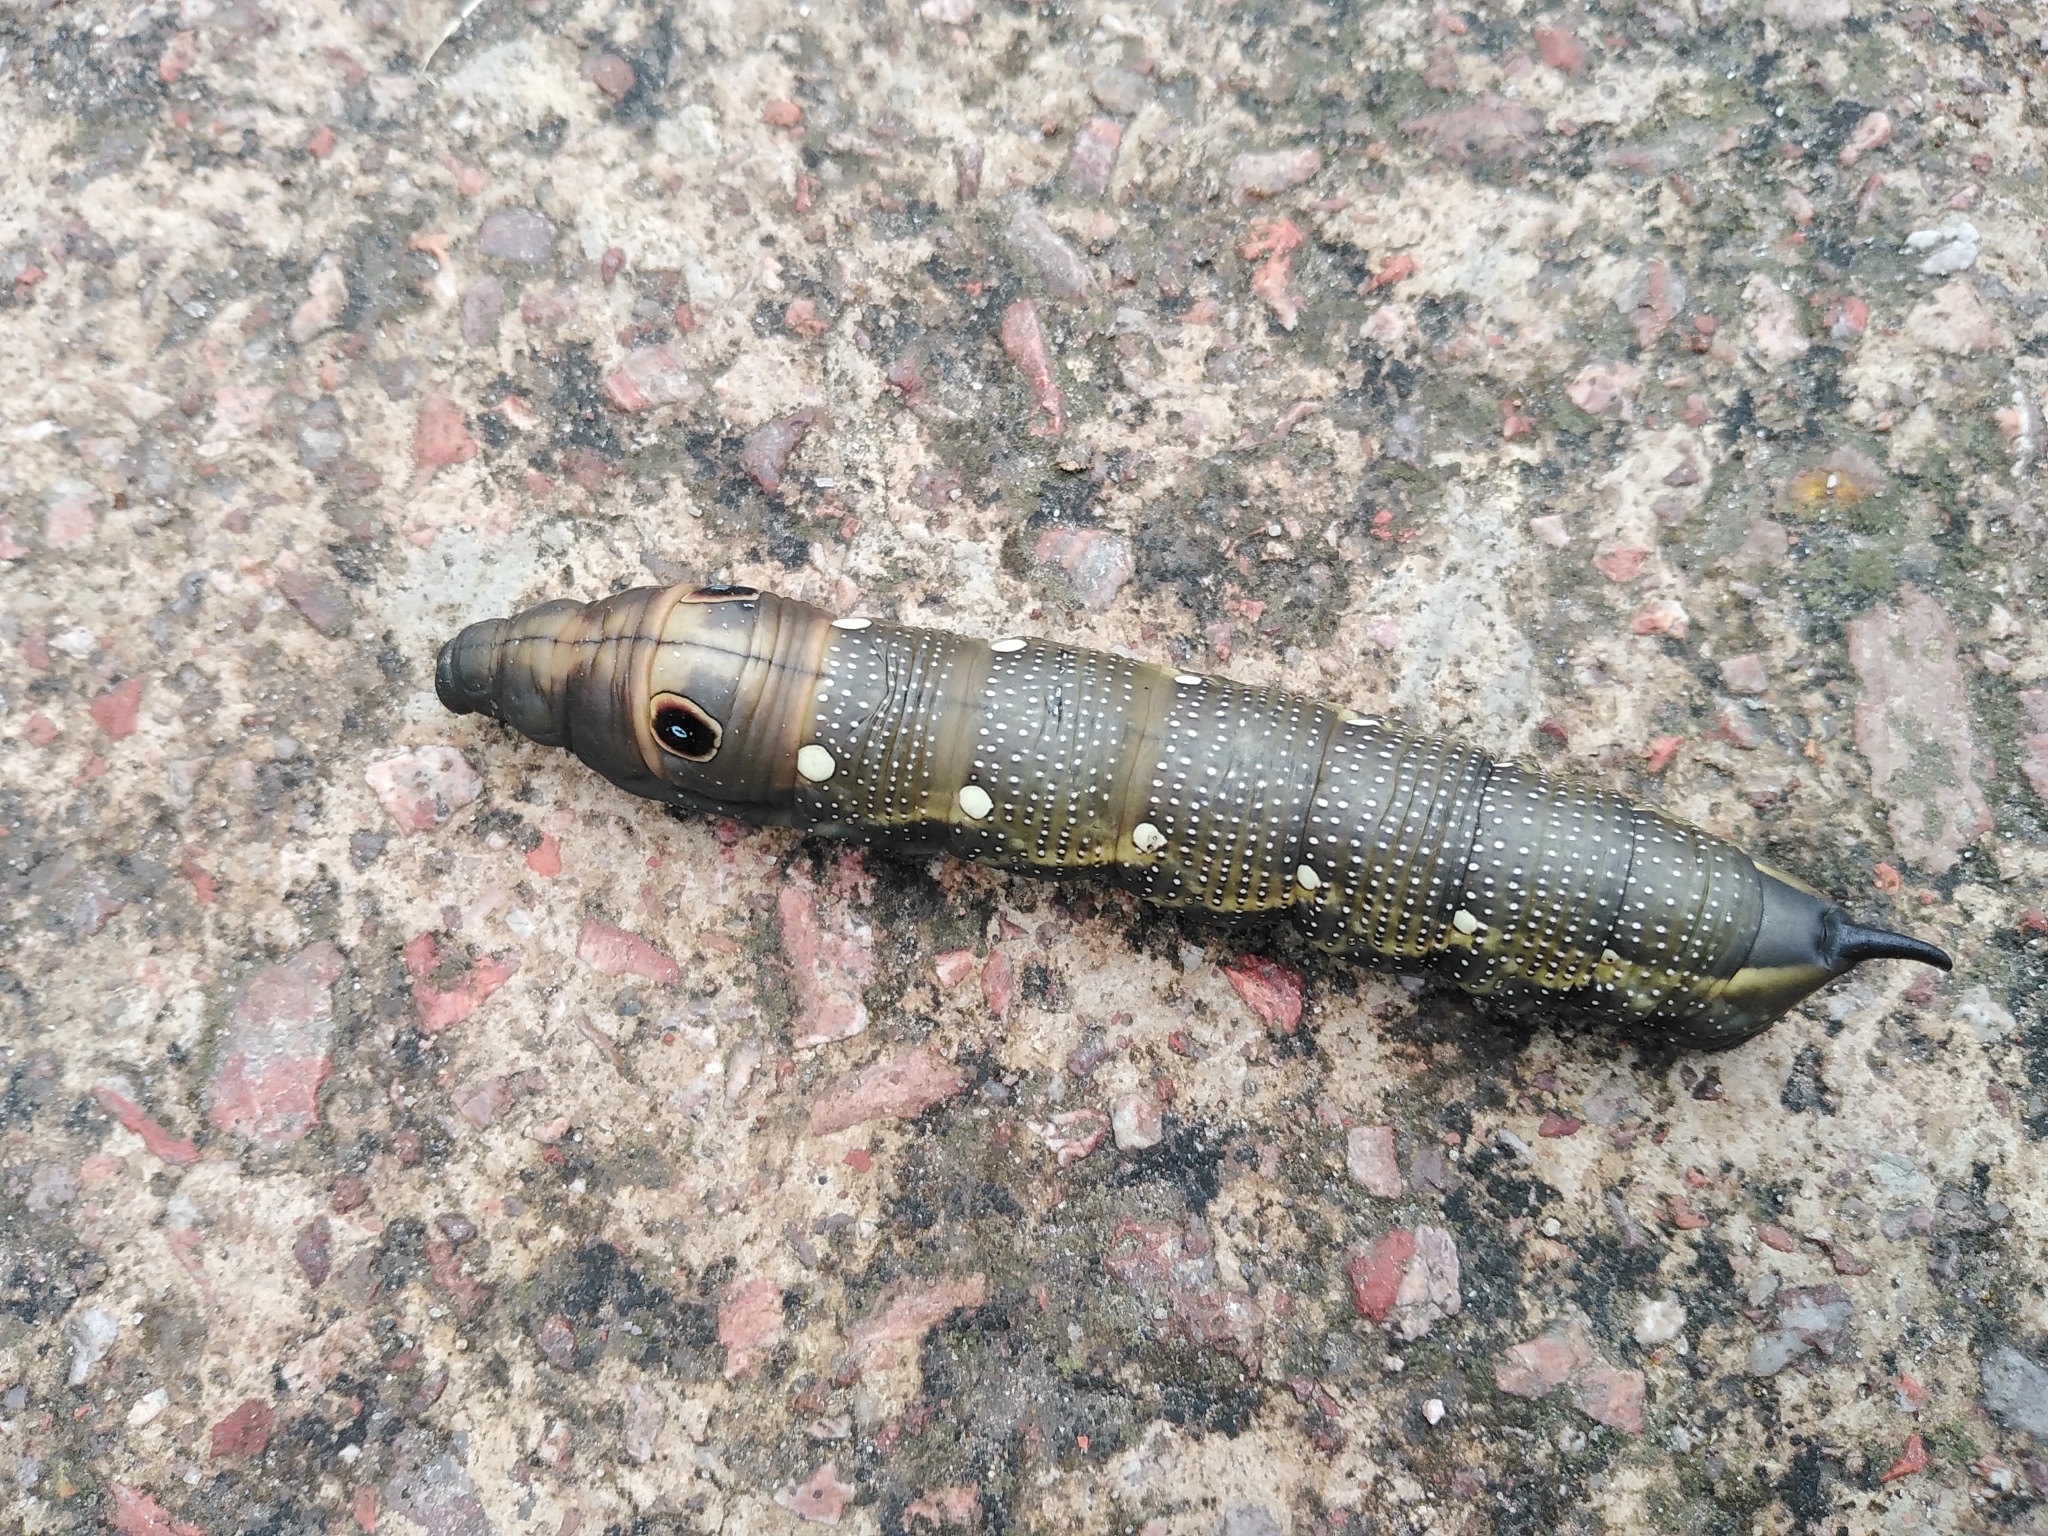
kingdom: Animalia
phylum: Arthropoda
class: Insecta
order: Lepidoptera
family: Sphingidae
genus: Xylophanes
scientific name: Xylophanes falco
